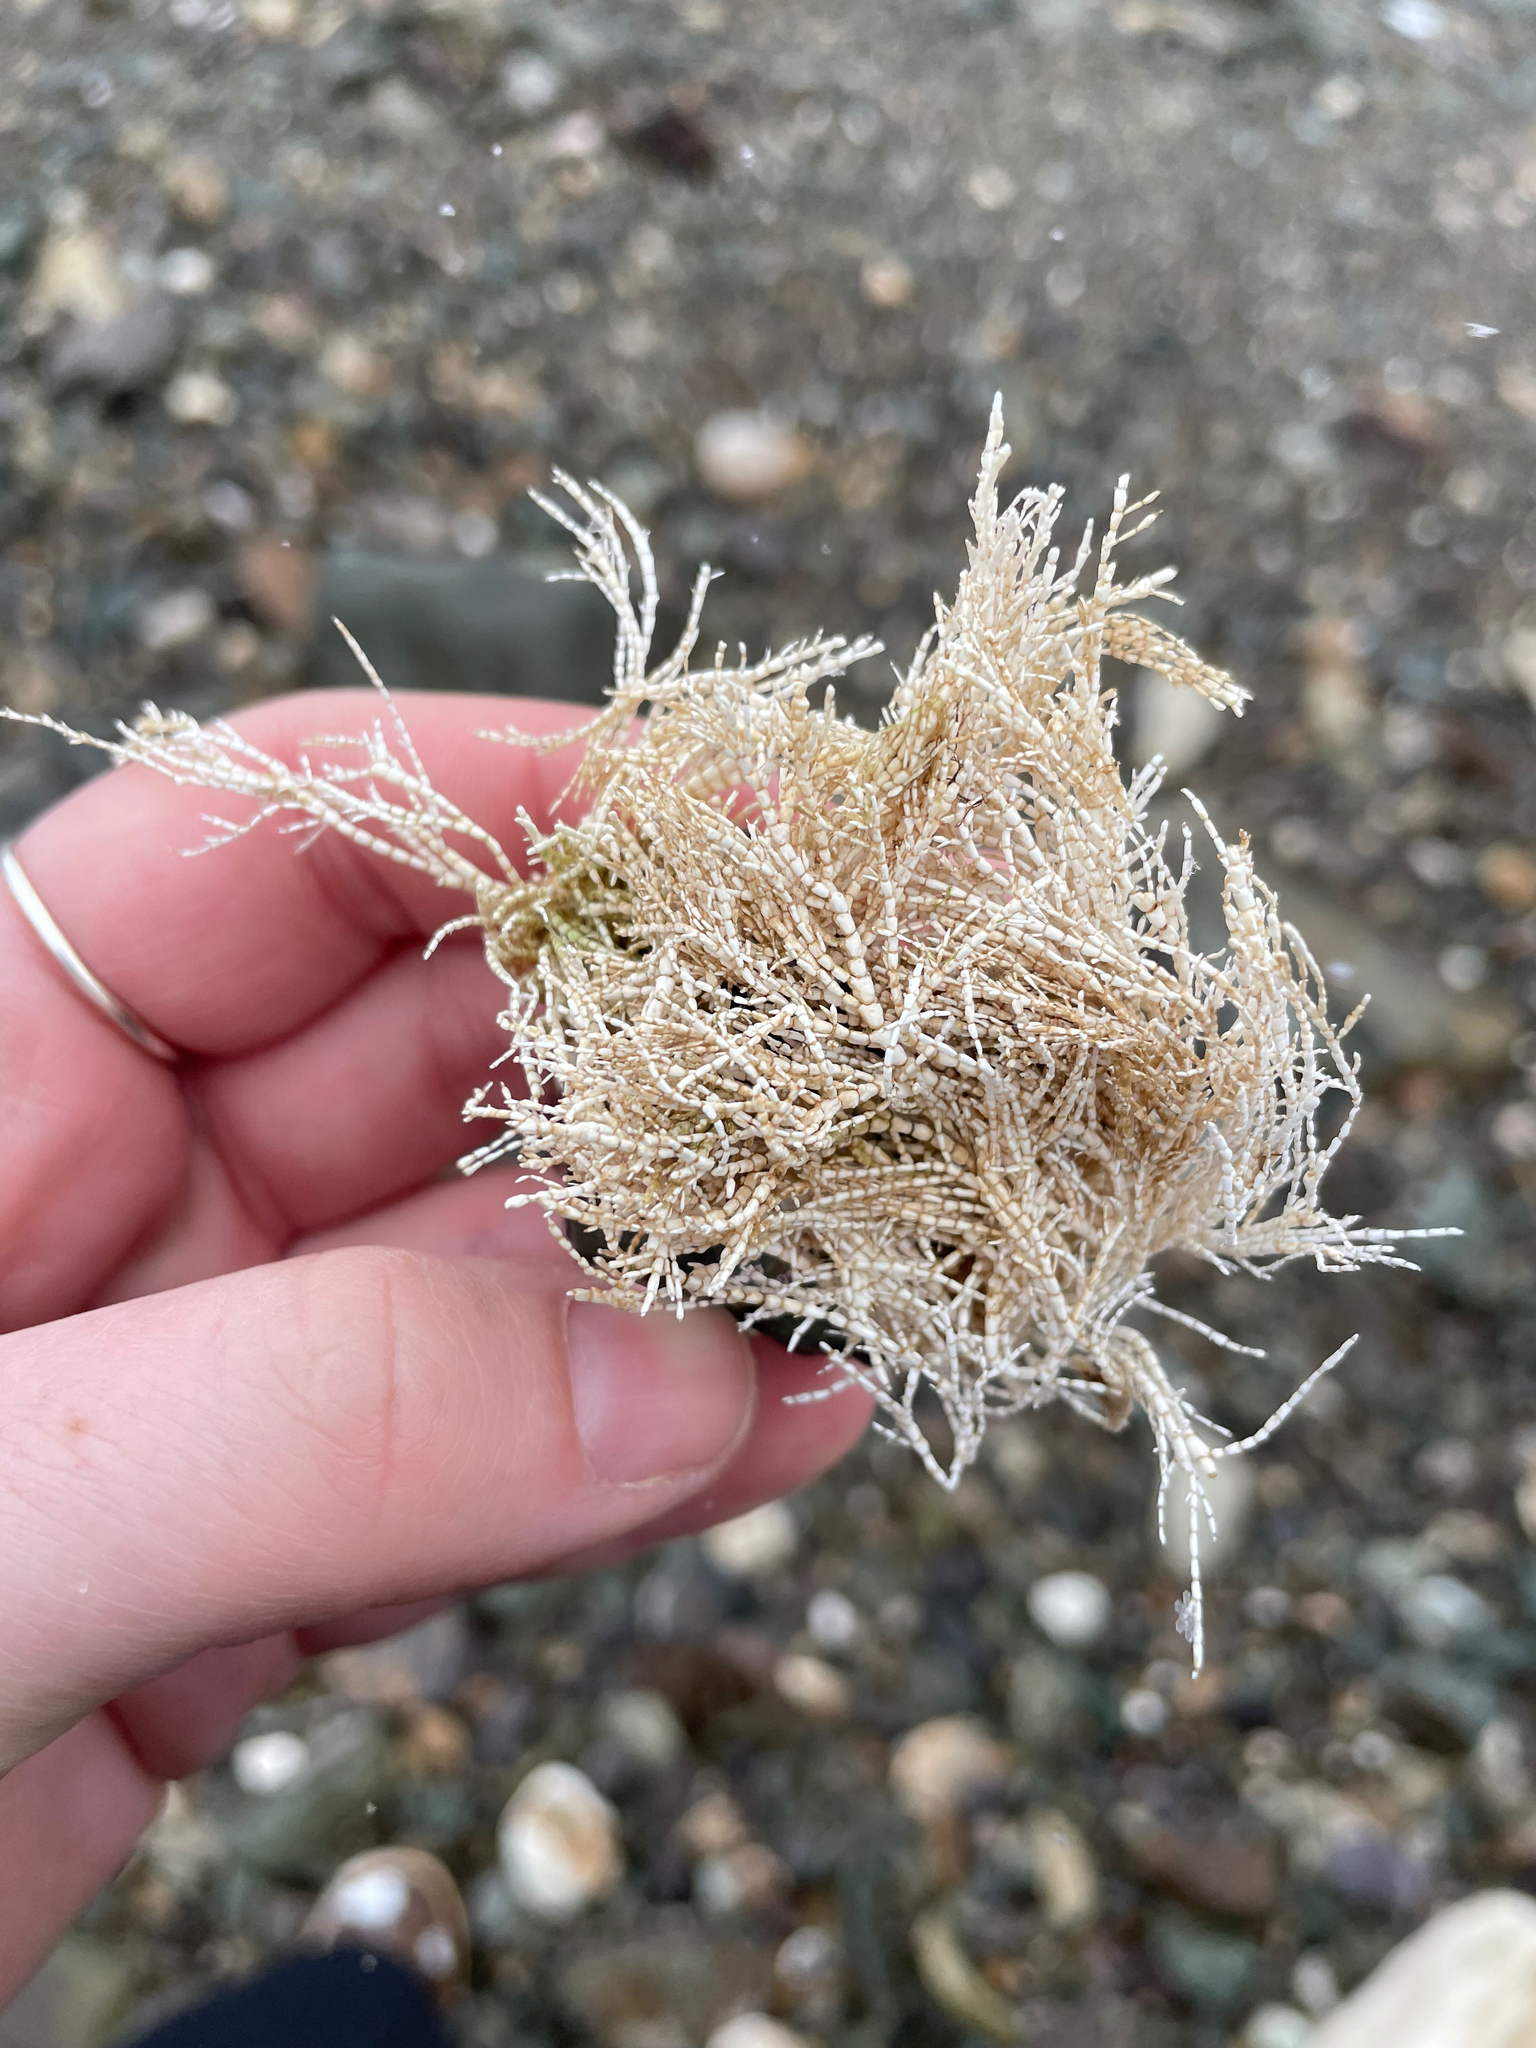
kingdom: Plantae
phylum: Rhodophyta
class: Florideophyceae
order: Corallinales
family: Corallinaceae
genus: Corallina
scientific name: Corallina officinalis
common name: Coral weed
